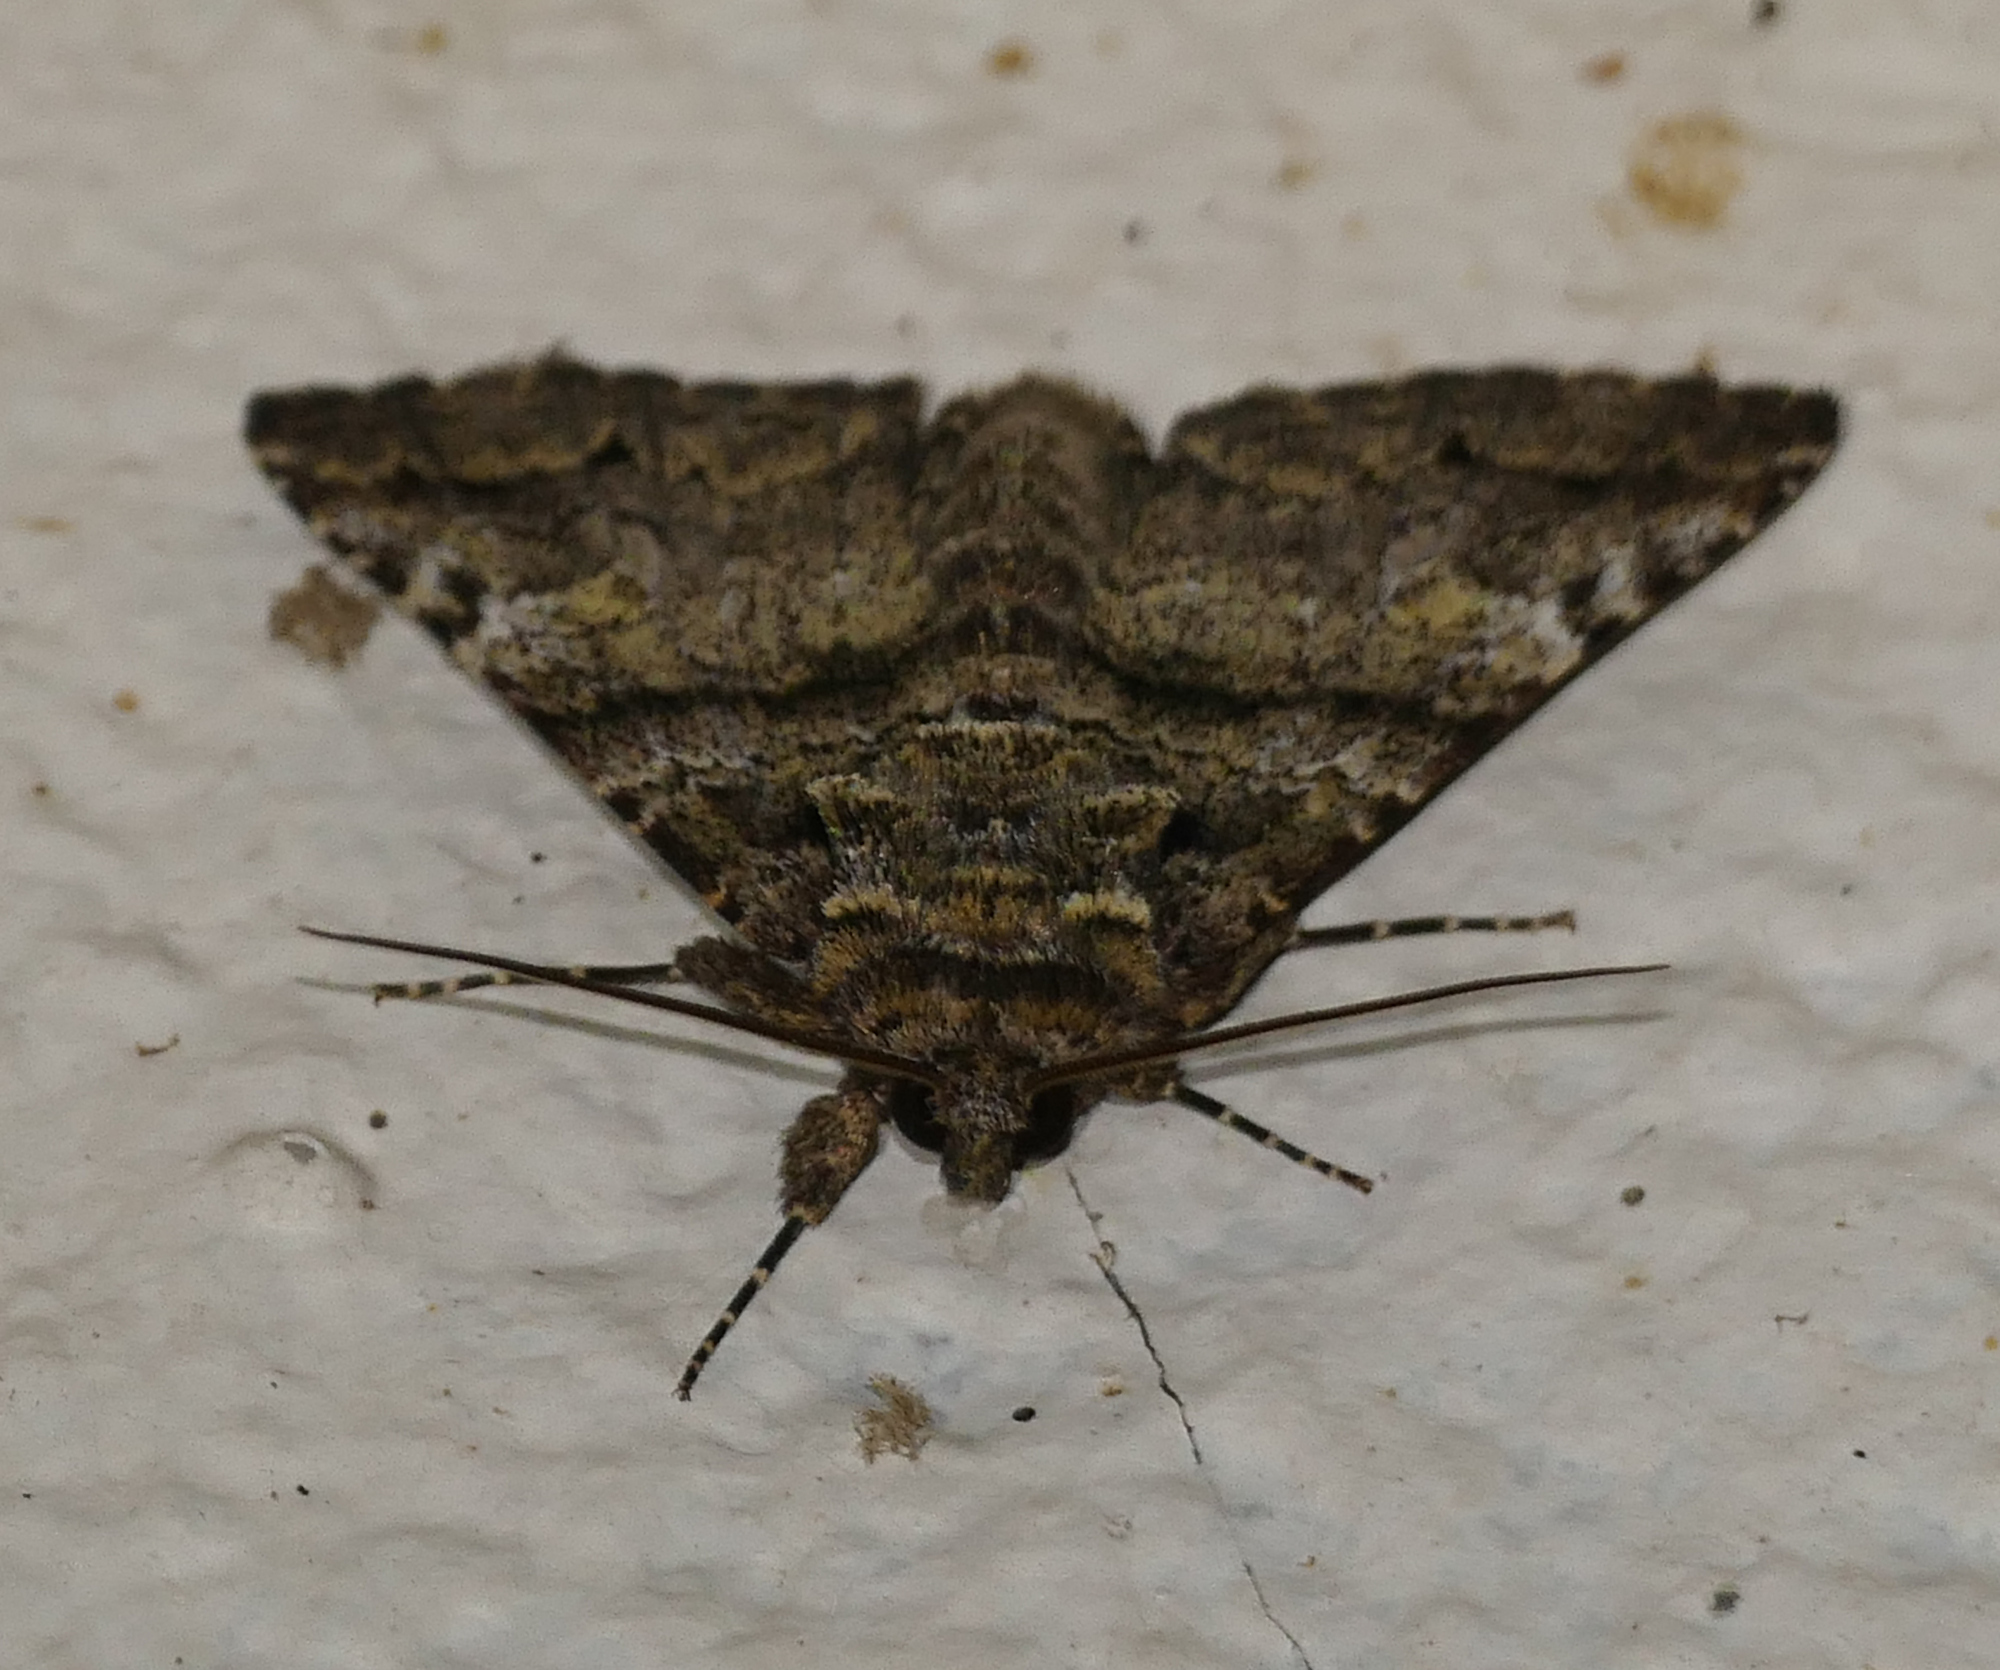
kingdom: Animalia
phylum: Arthropoda
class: Insecta
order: Lepidoptera
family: Erebidae
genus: Metria
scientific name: Metria amella
